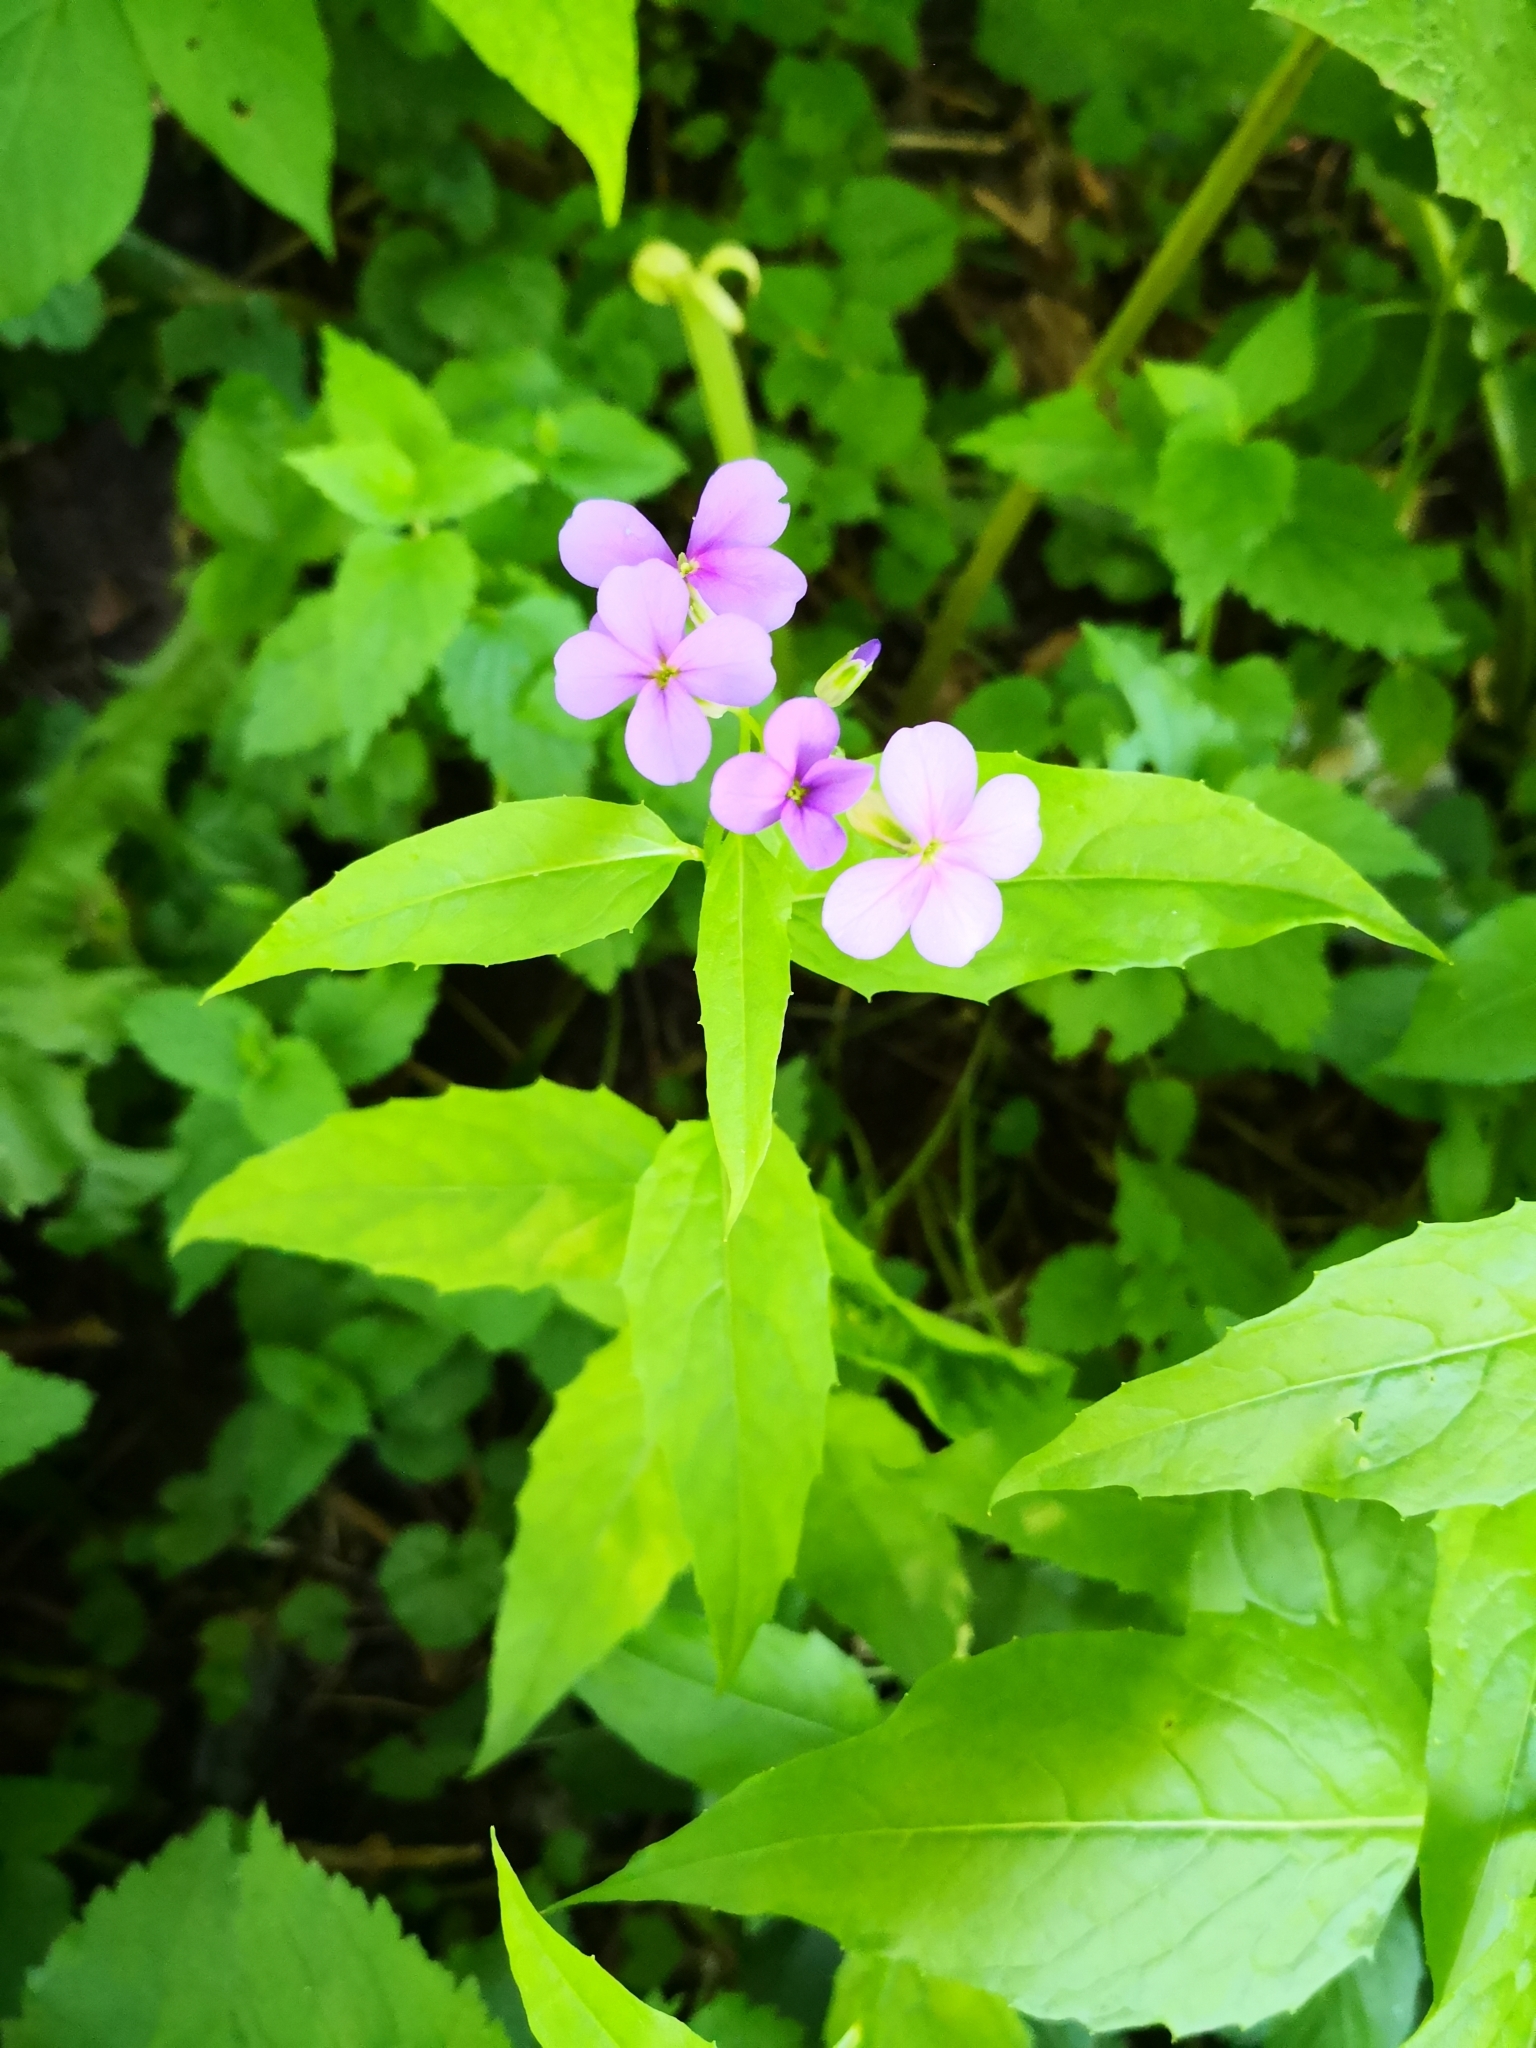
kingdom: Plantae
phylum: Tracheophyta
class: Magnoliopsida
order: Brassicales
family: Brassicaceae
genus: Hesperis
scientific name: Hesperis matronalis
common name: Dame's-violet
